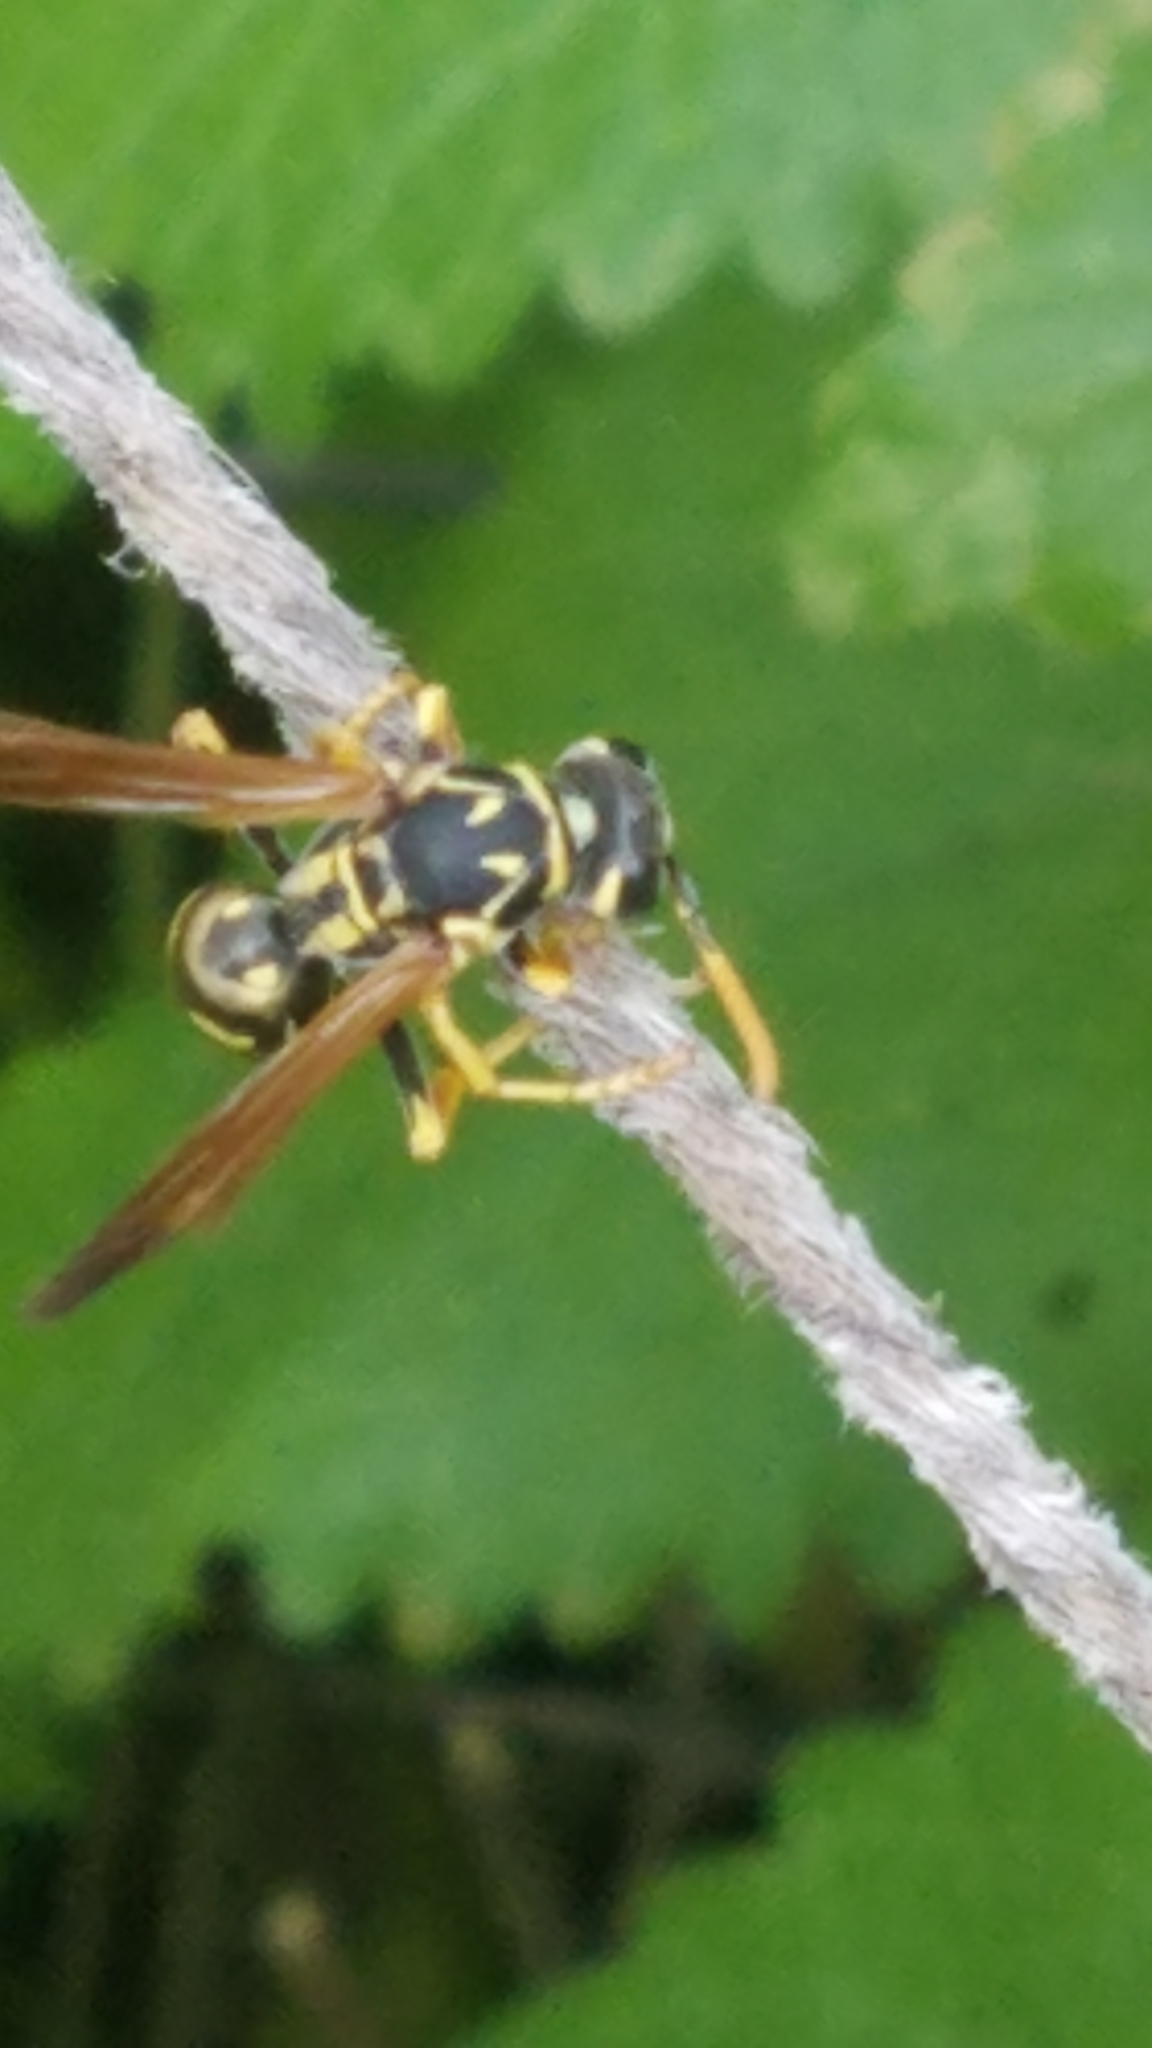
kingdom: Animalia
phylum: Arthropoda
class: Insecta
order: Hymenoptera
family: Eumenidae
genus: Polistes
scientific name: Polistes dominula
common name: Paper wasp
